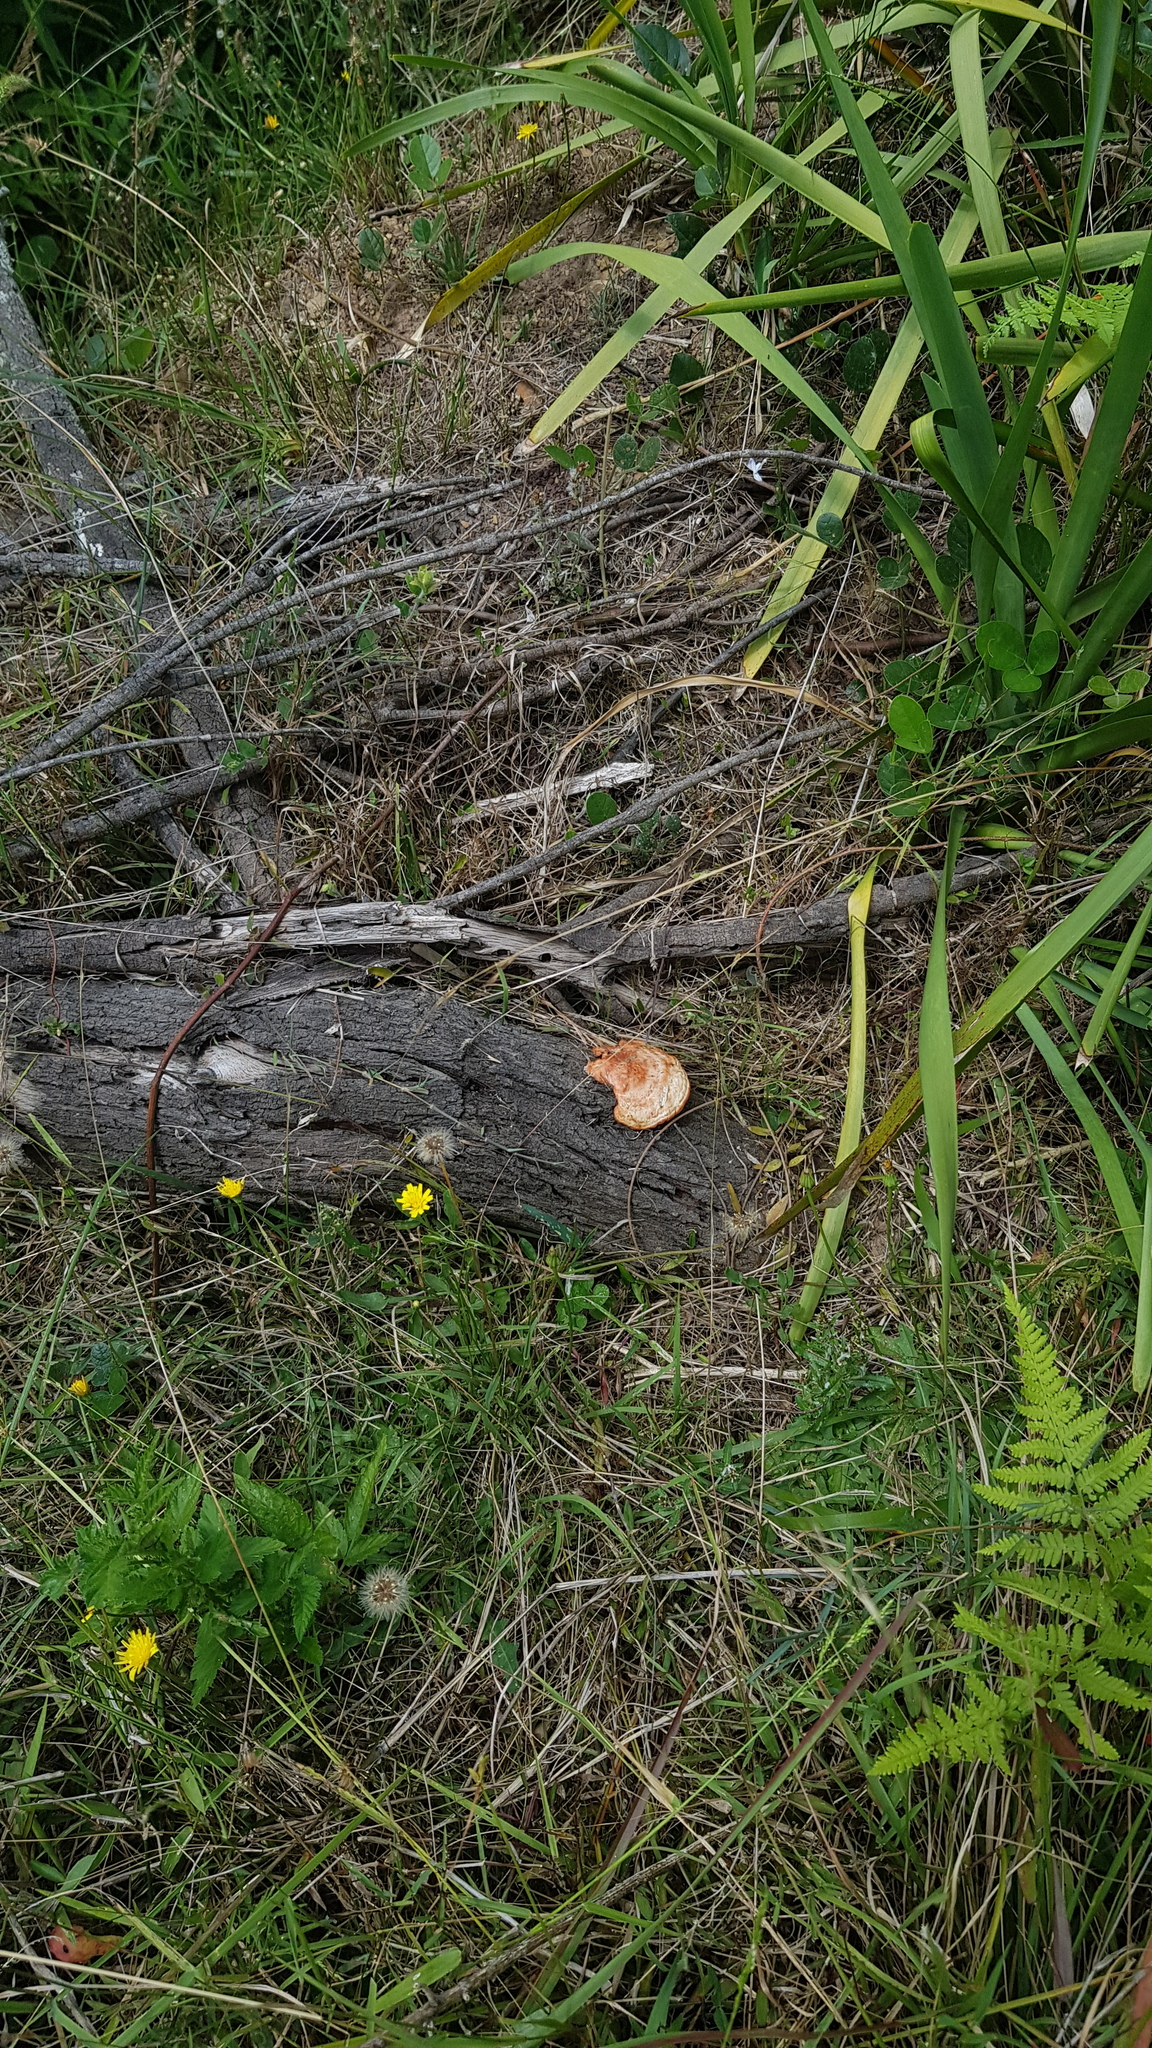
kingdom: Fungi
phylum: Basidiomycota
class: Agaricomycetes
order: Polyporales
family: Polyporaceae
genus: Trametes
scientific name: Trametes coccinea
